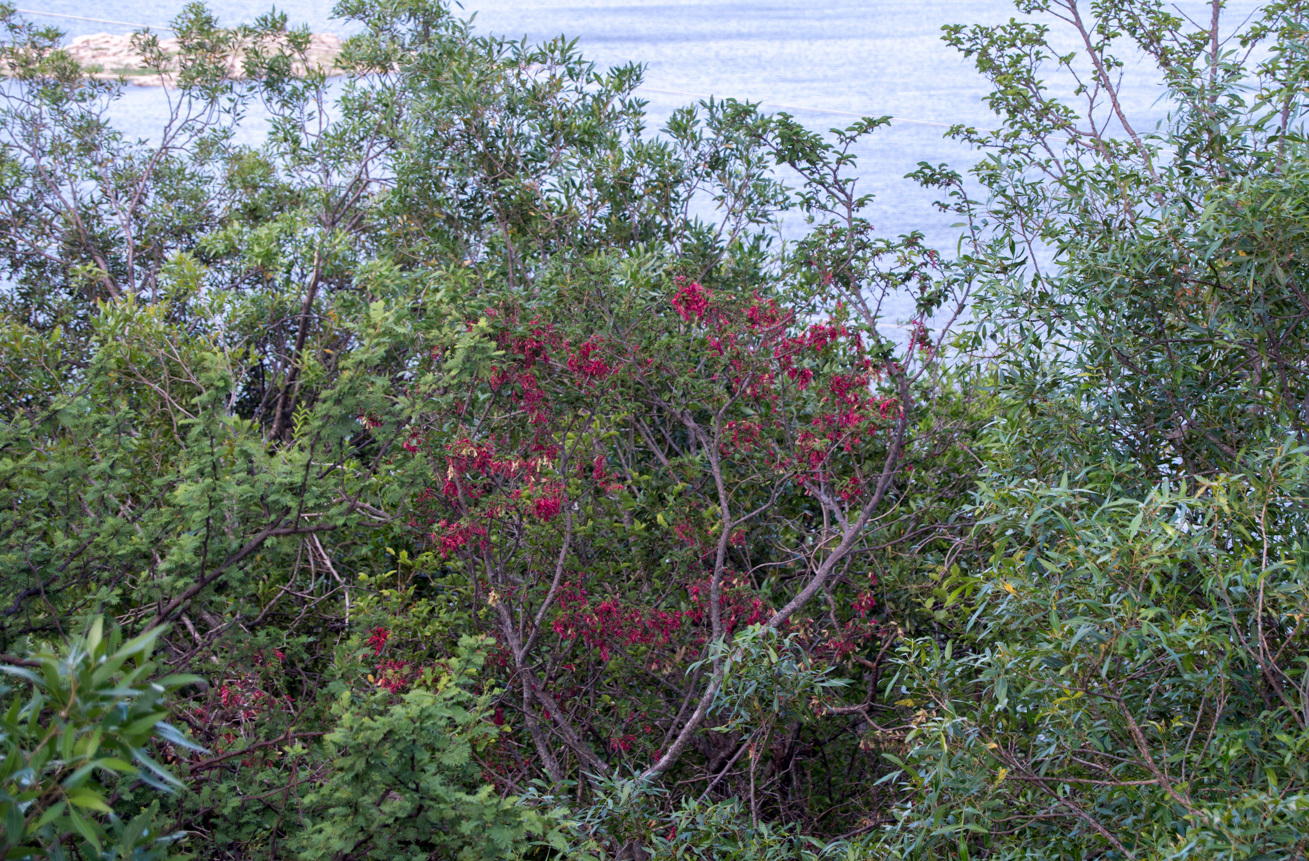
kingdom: Plantae
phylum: Tracheophyta
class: Magnoliopsida
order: Caryophyllales
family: Polygonaceae
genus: Ruprechtia
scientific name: Ruprechtia apetala
